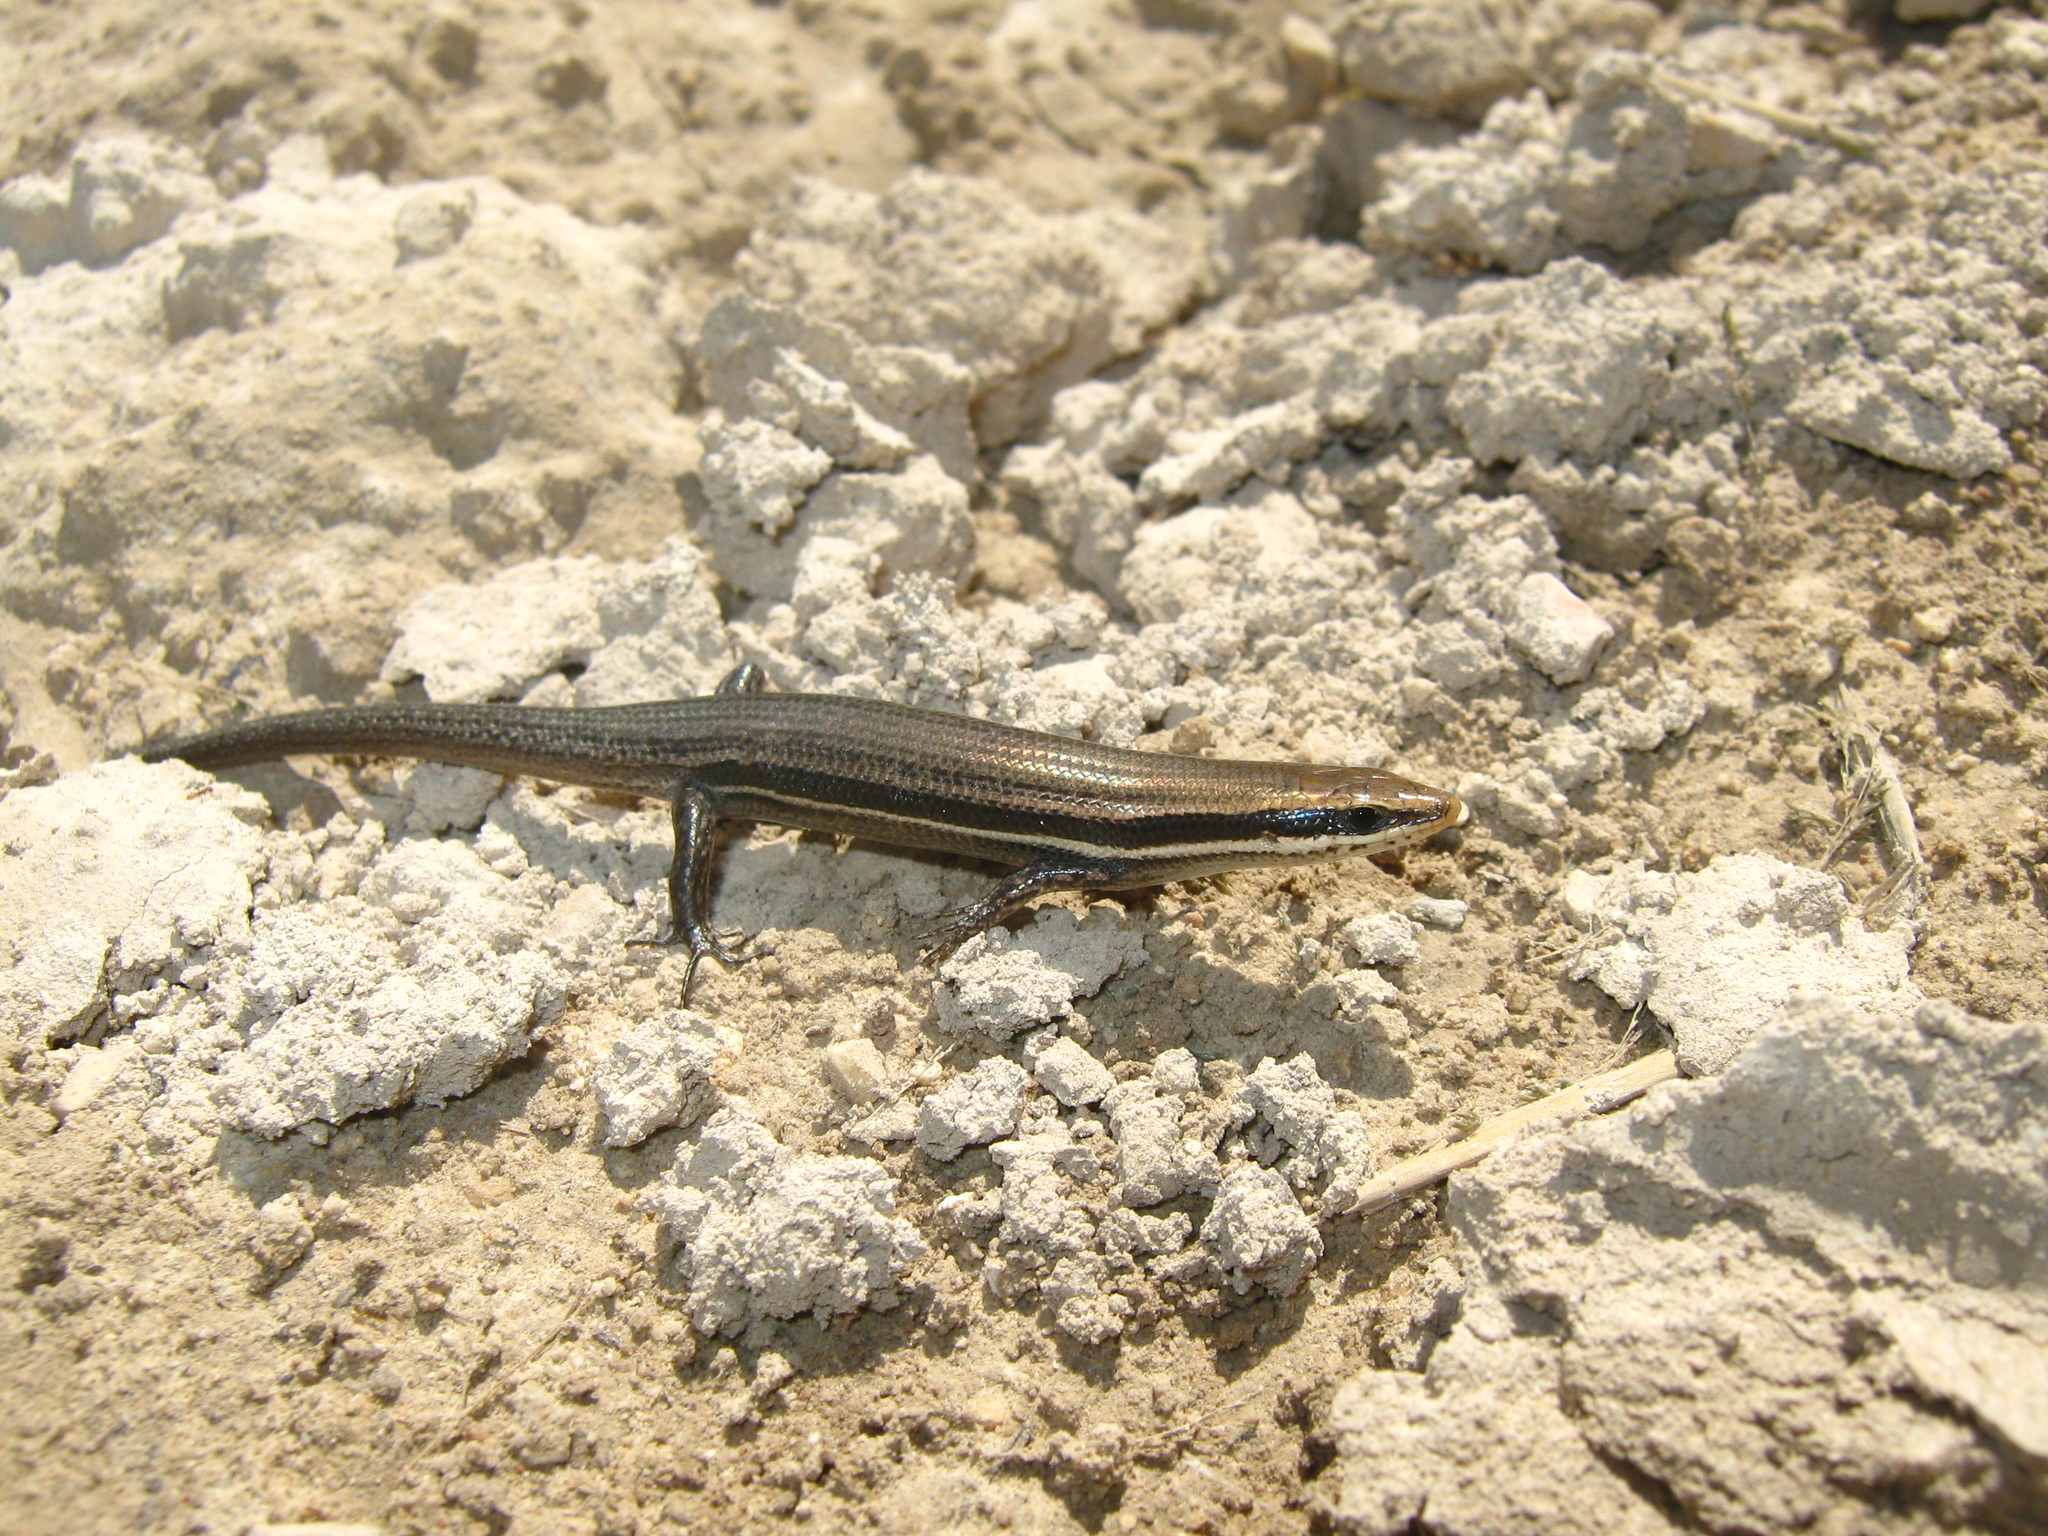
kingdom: Animalia
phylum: Chordata
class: Squamata
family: Scincidae
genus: Marisora
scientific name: Marisora lineola
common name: Mayan skink
